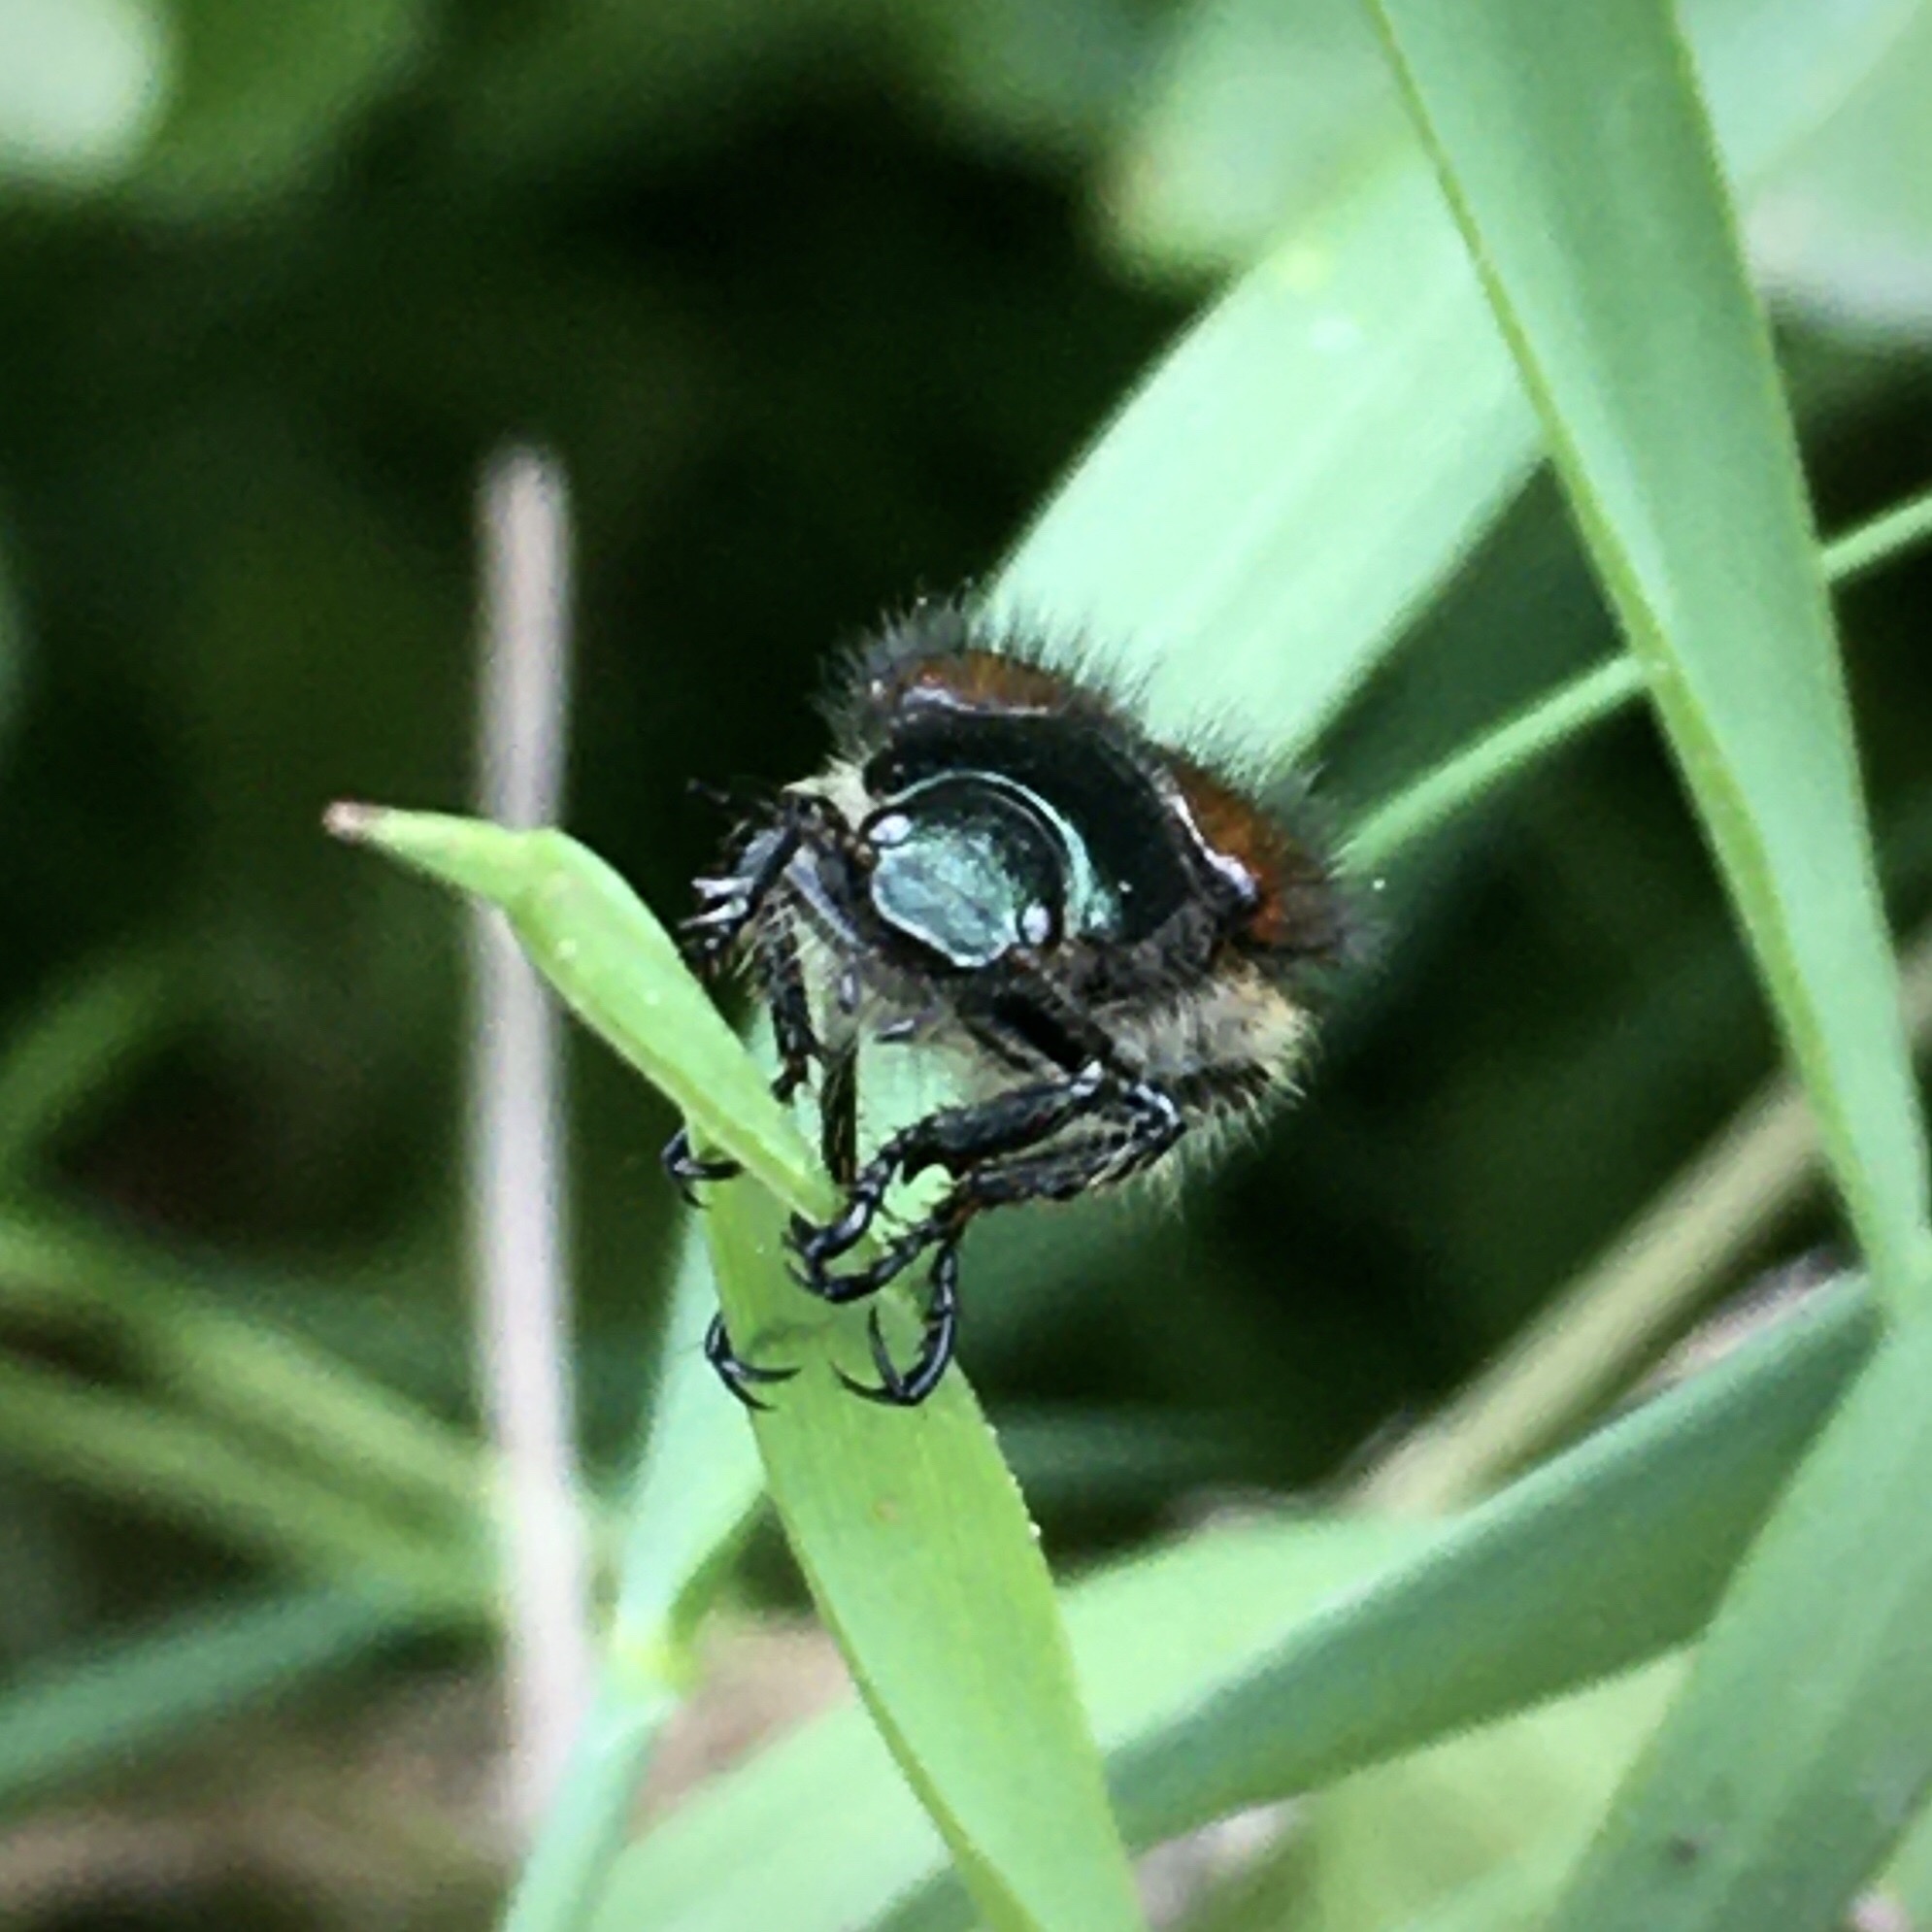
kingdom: Animalia
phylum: Arthropoda
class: Insecta
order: Coleoptera
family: Scarabaeidae
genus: Phyllopertha
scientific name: Phyllopertha horticola
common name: Garden chafer
